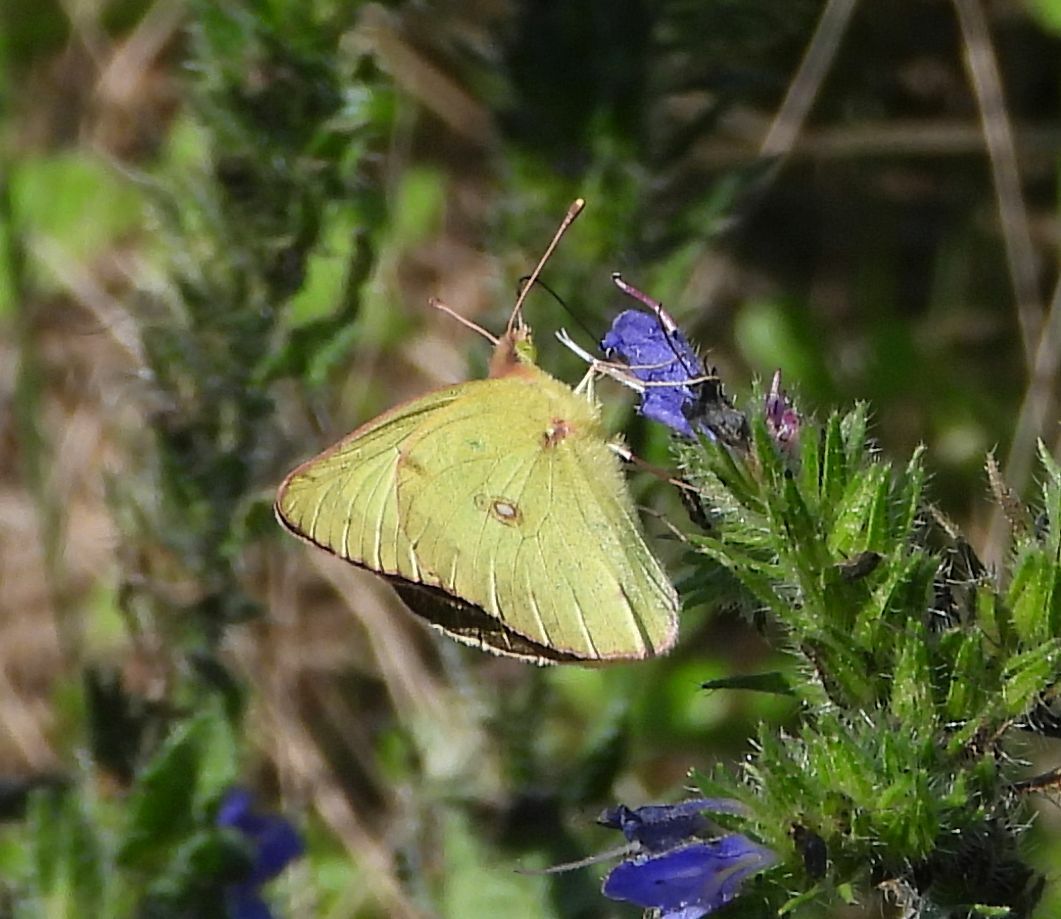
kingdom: Animalia
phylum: Arthropoda
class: Insecta
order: Lepidoptera
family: Pieridae
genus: Colias
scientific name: Colias philodice
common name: Clouded sulphur
